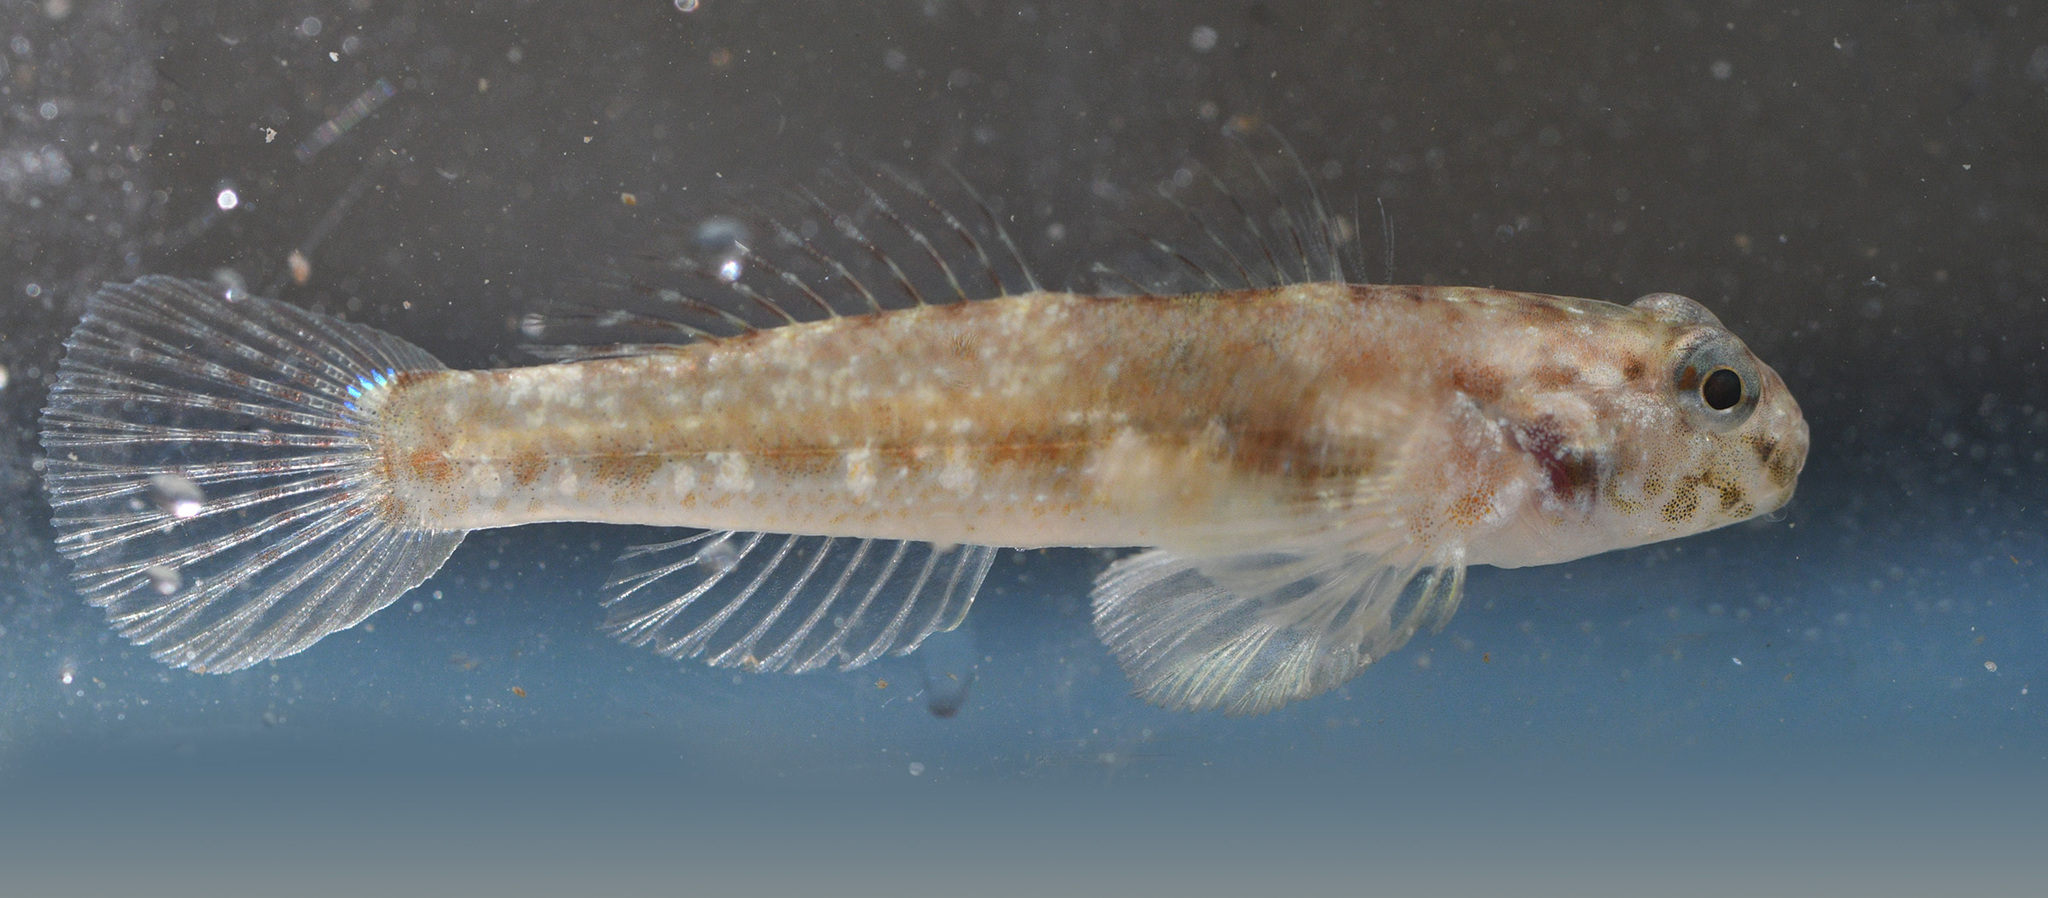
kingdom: Animalia
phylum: Chordata
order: Perciformes
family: Gobiidae
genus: Bathygobius
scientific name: Bathygobius cocosensis
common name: Cocos frillgoby
